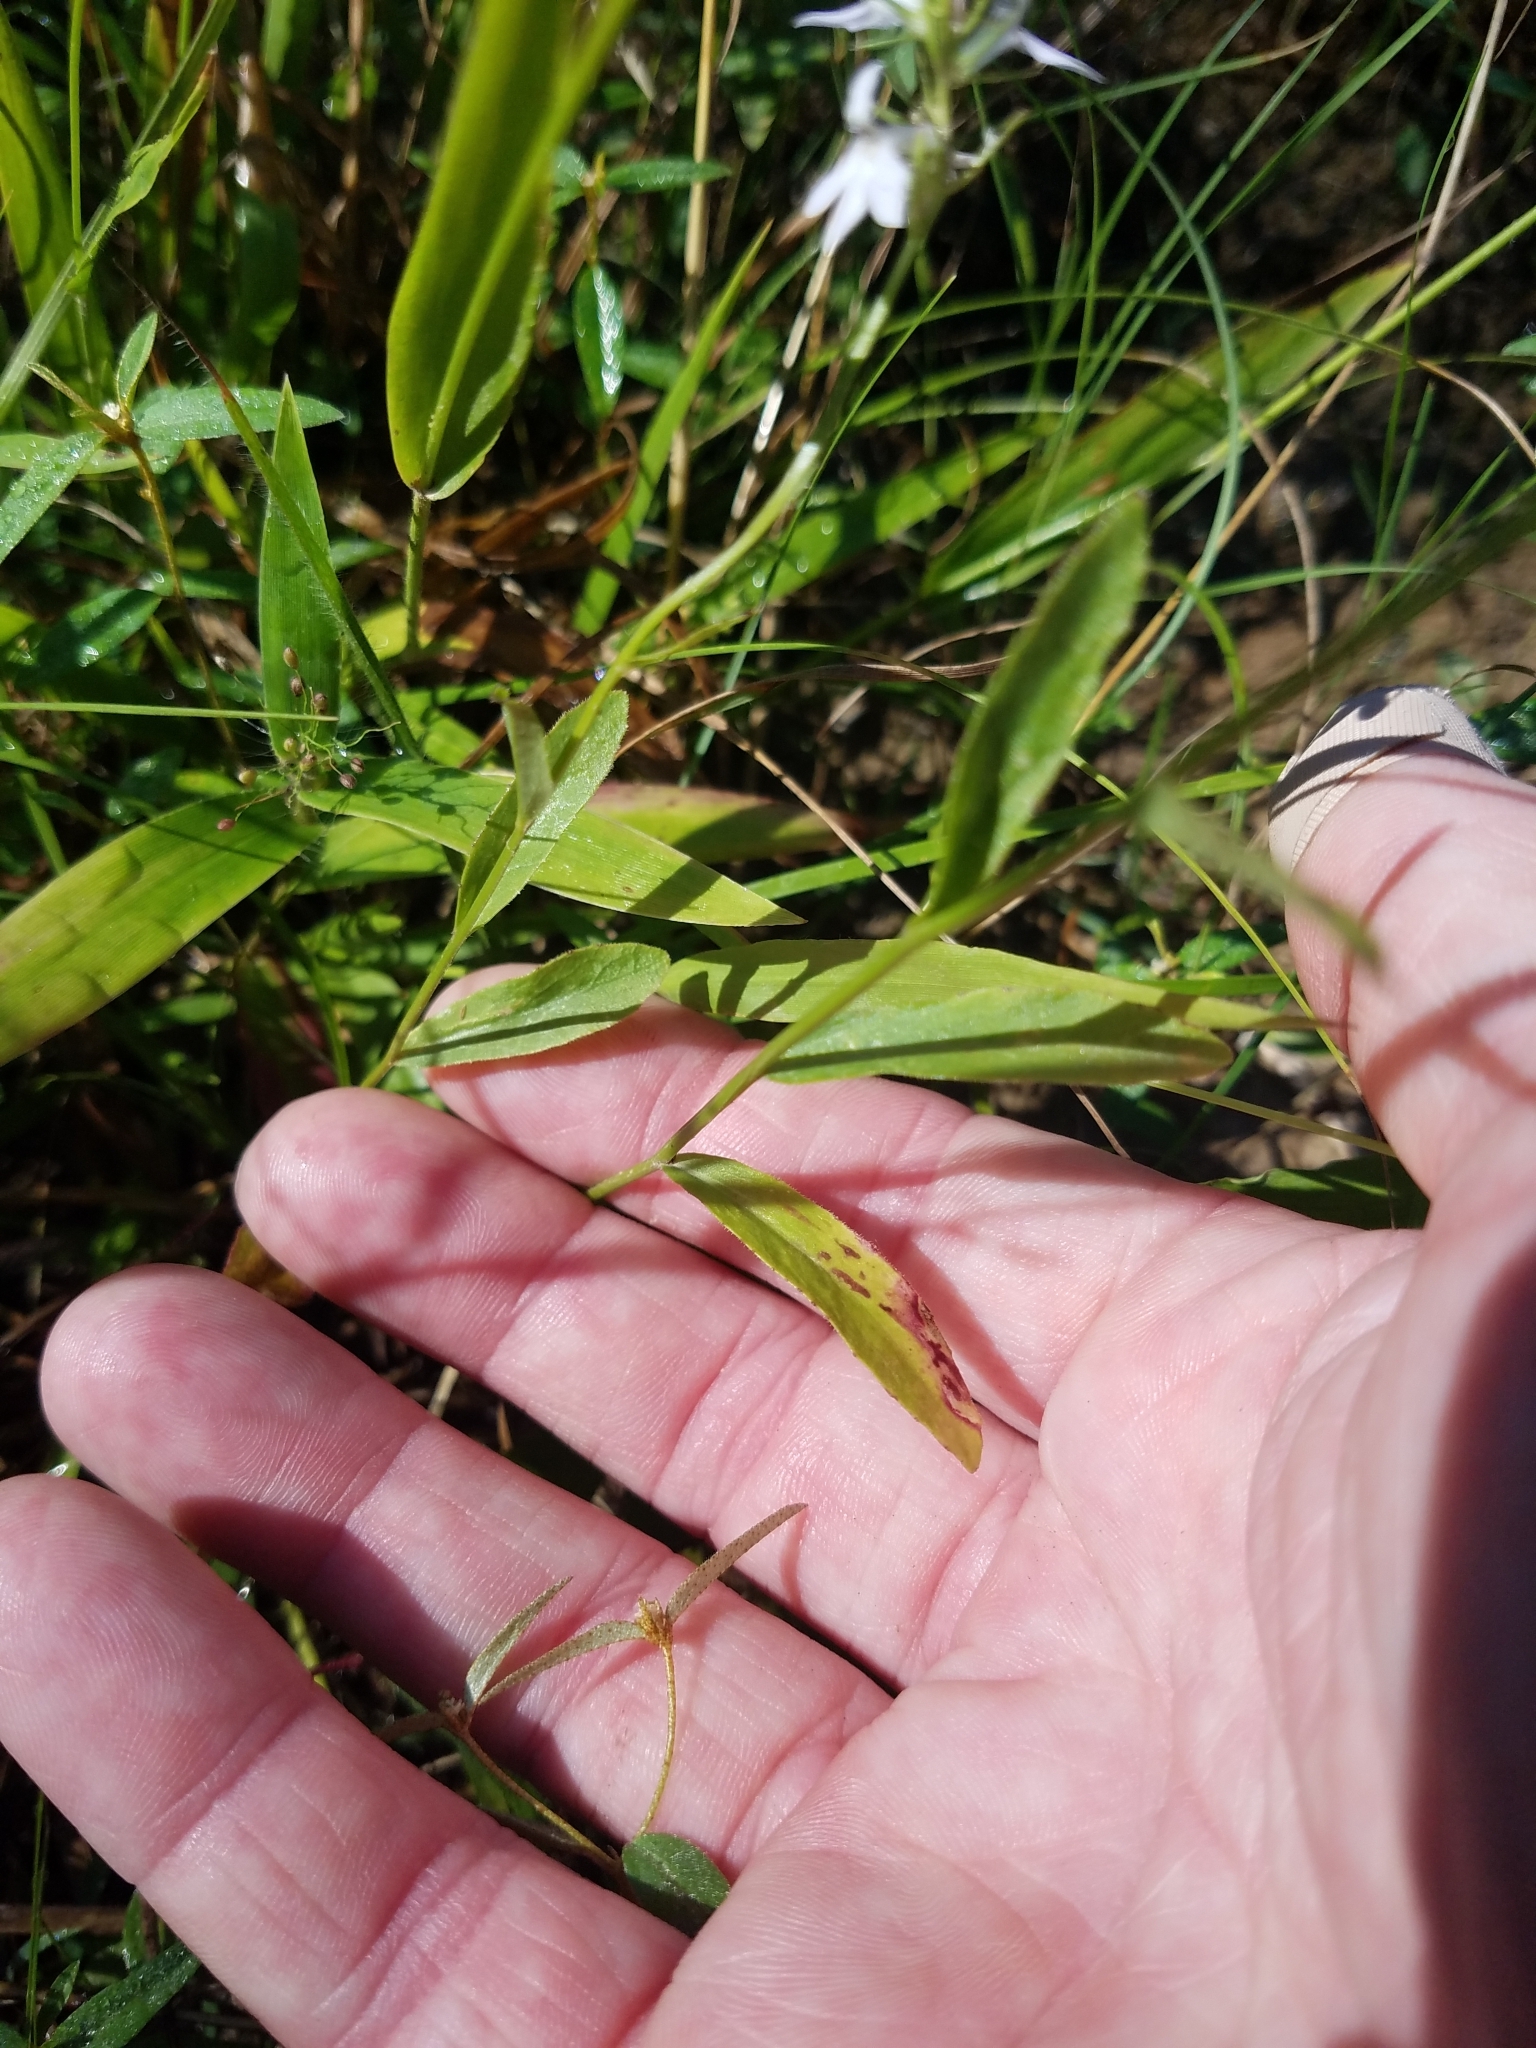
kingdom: Plantae
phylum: Tracheophyta
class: Magnoliopsida
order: Asterales
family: Campanulaceae
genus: Lobelia
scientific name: Lobelia spicata
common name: Pale-spike lobelia
